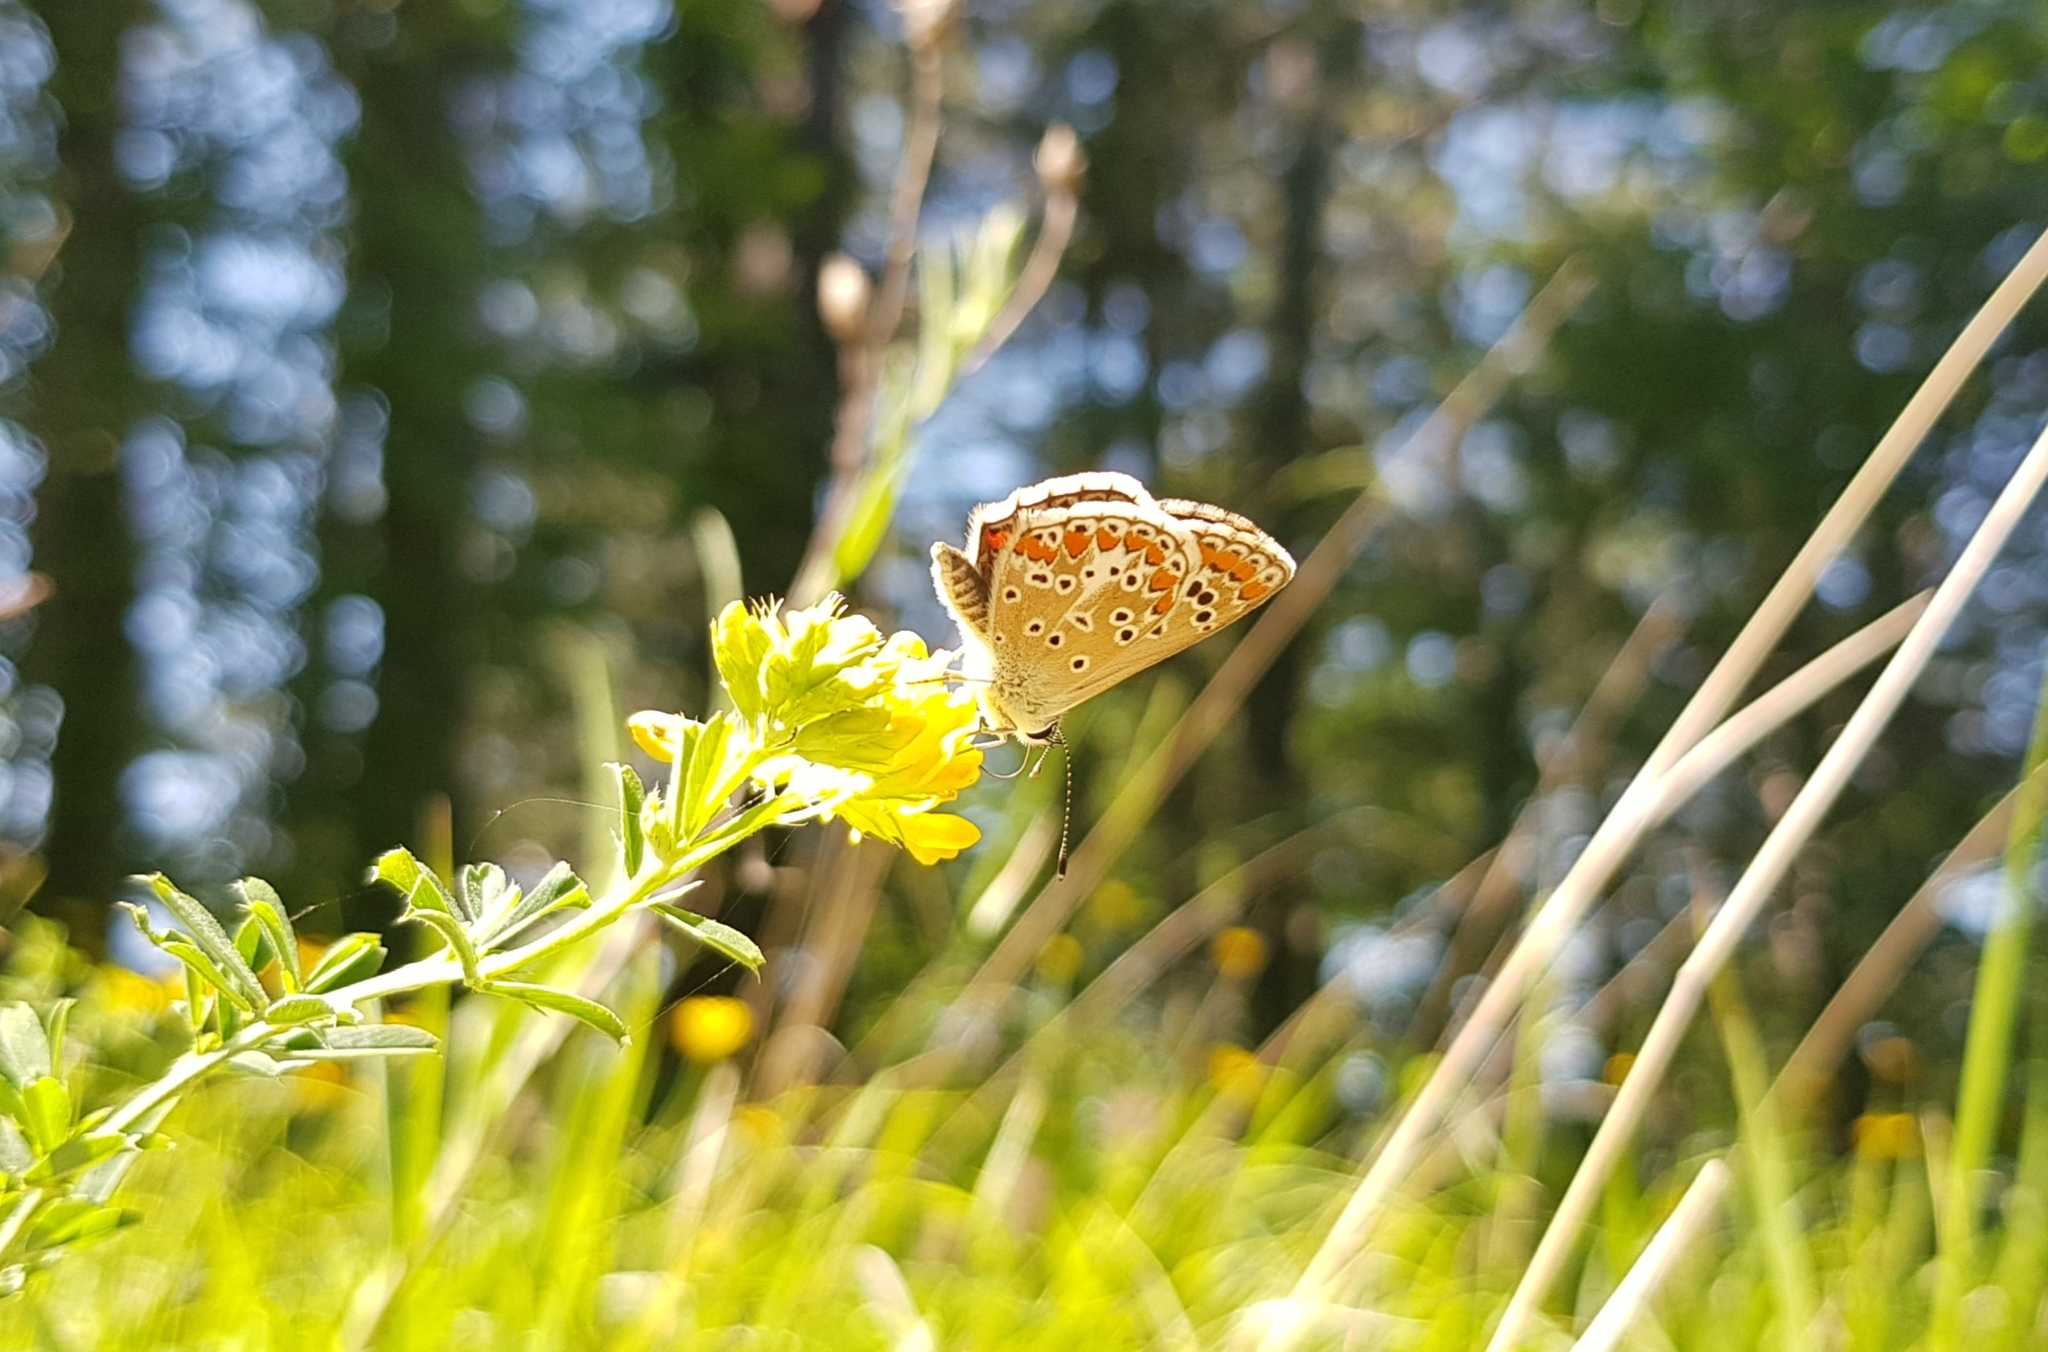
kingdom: Animalia
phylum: Arthropoda
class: Insecta
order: Lepidoptera
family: Lycaenidae
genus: Aricia
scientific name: Aricia agestis
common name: Brown argus
